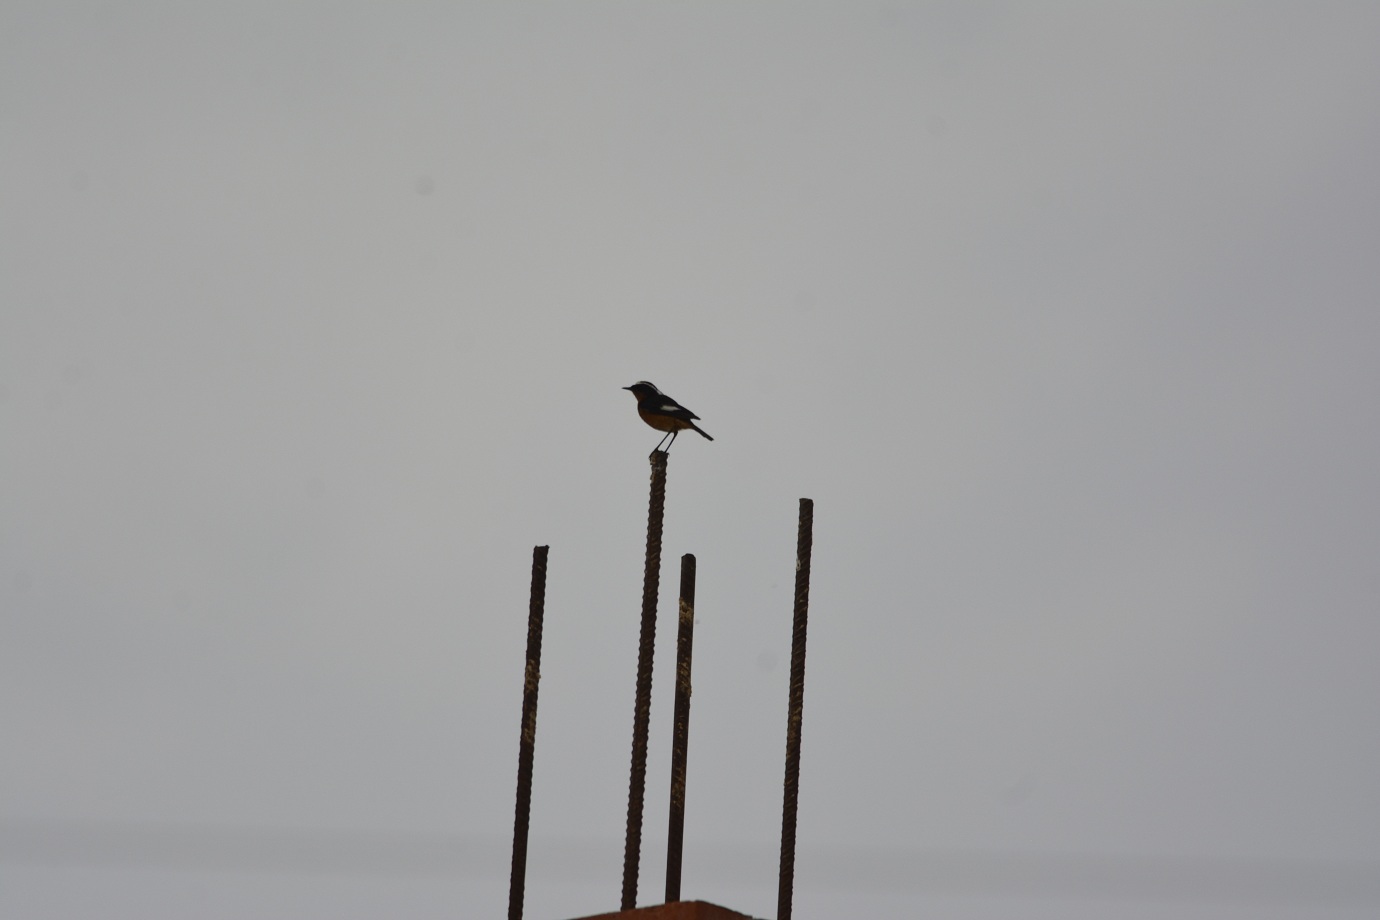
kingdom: Animalia
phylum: Chordata
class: Aves
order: Passeriformes
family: Muscicapidae
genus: Phoenicurus
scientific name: Phoenicurus moussieri
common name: Moussier's redstart
